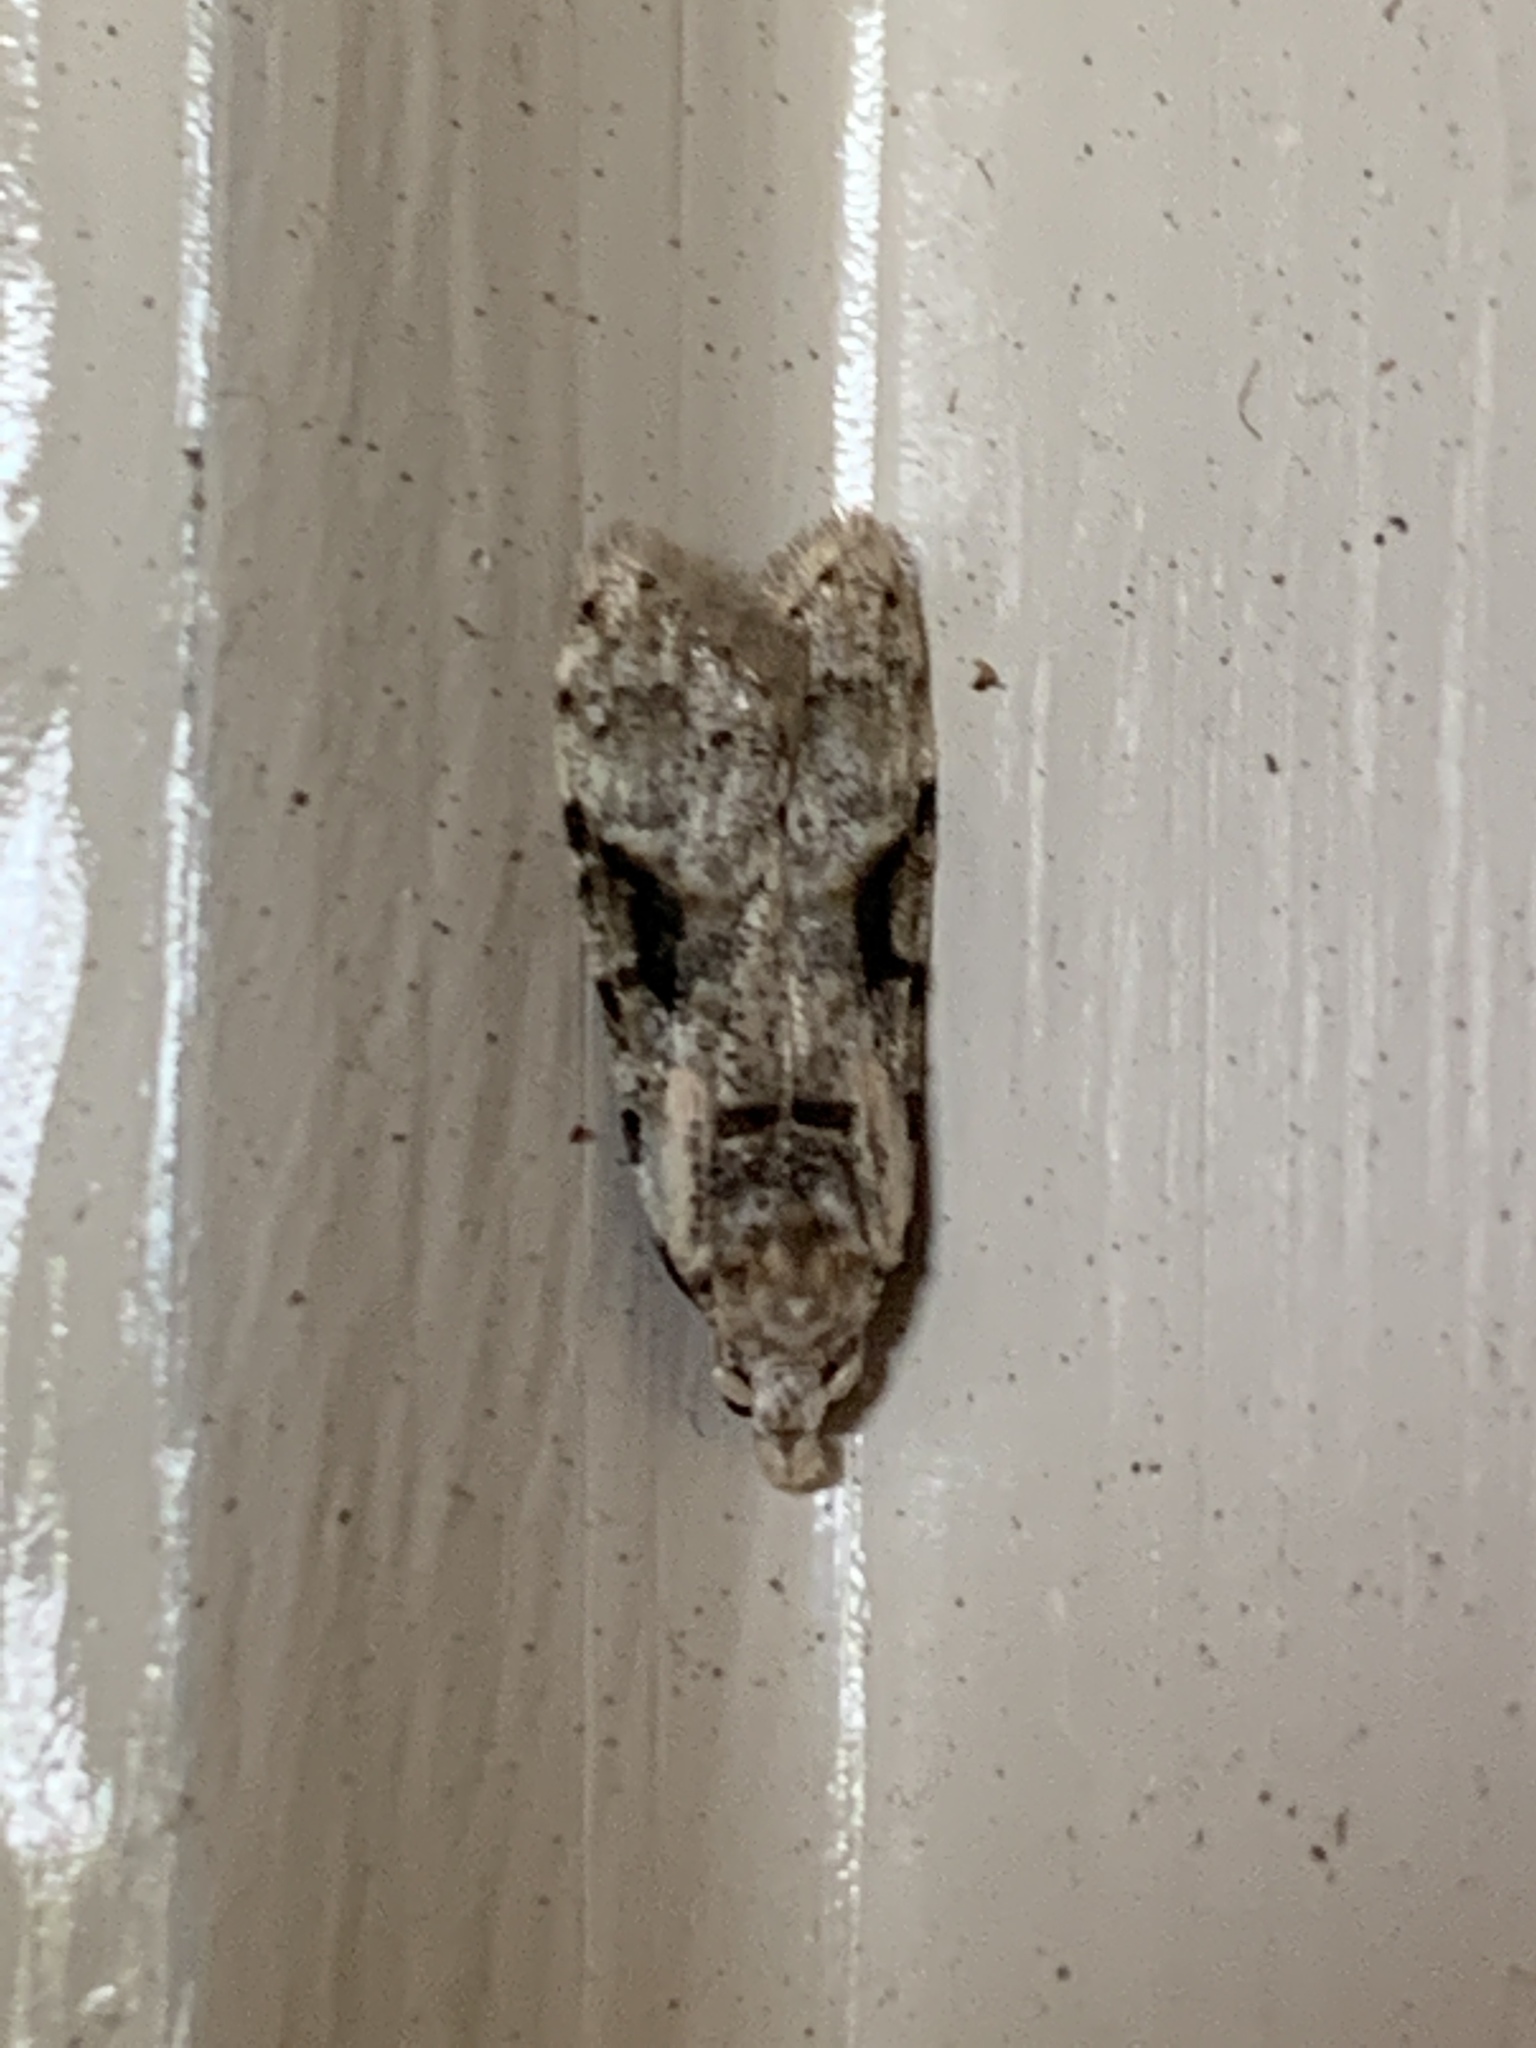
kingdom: Animalia
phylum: Arthropoda
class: Insecta
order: Lepidoptera
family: Carposinidae
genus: Coscinoptycha
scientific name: Coscinoptycha improbana
